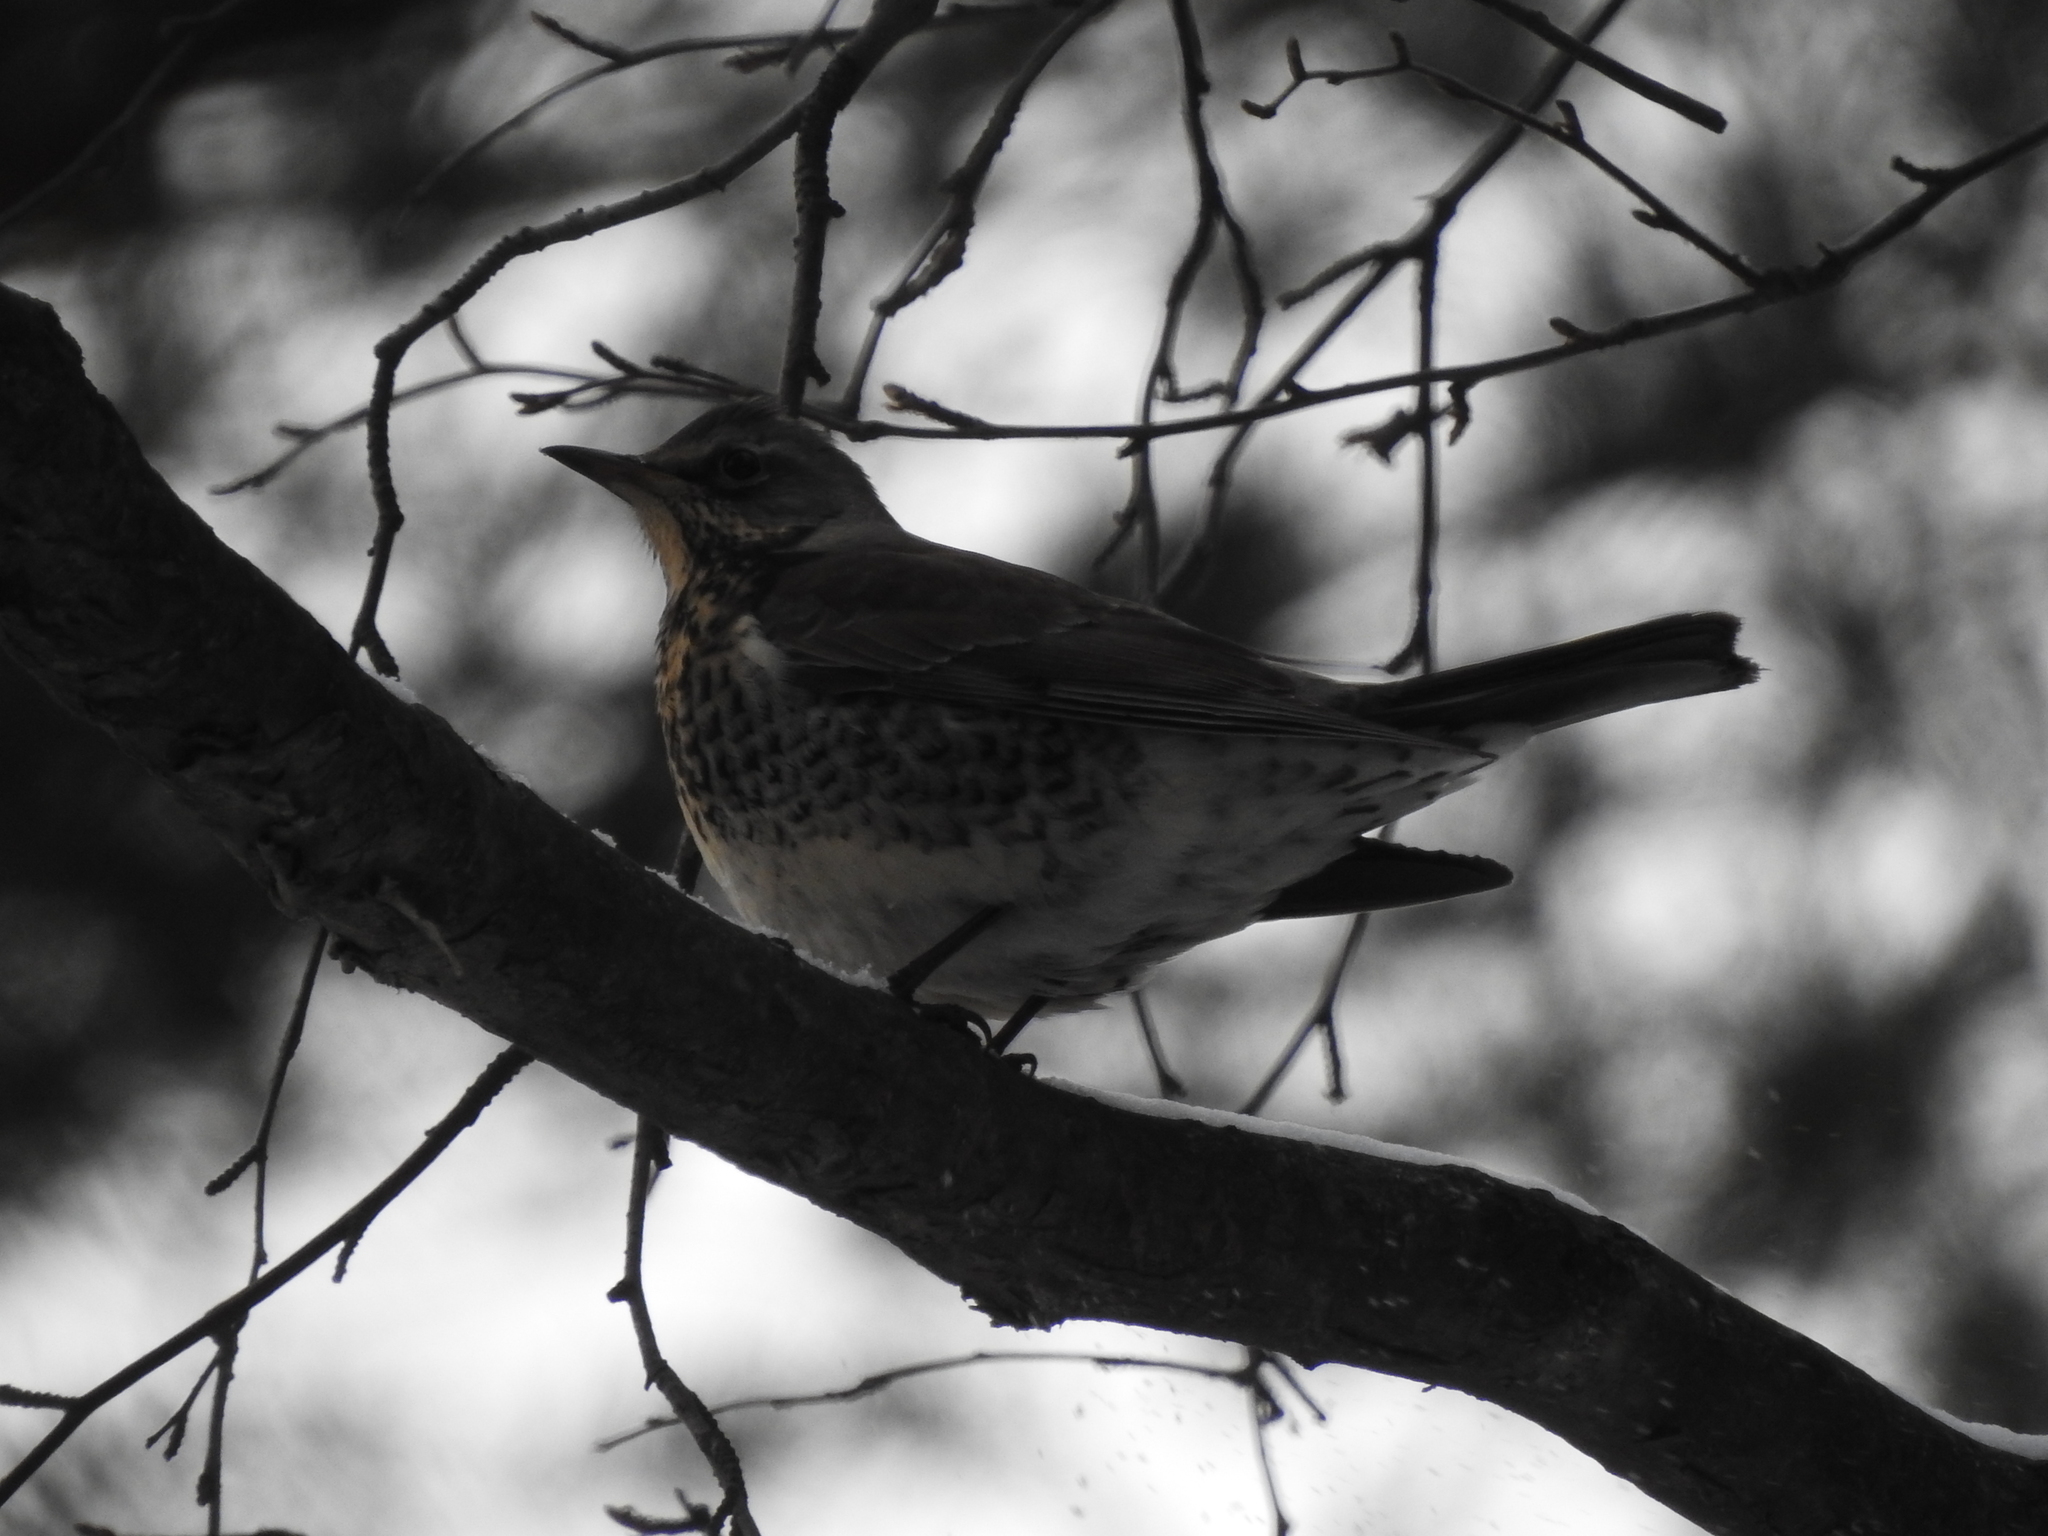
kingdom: Animalia
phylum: Chordata
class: Aves
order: Passeriformes
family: Turdidae
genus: Turdus
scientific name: Turdus pilaris
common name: Fieldfare
